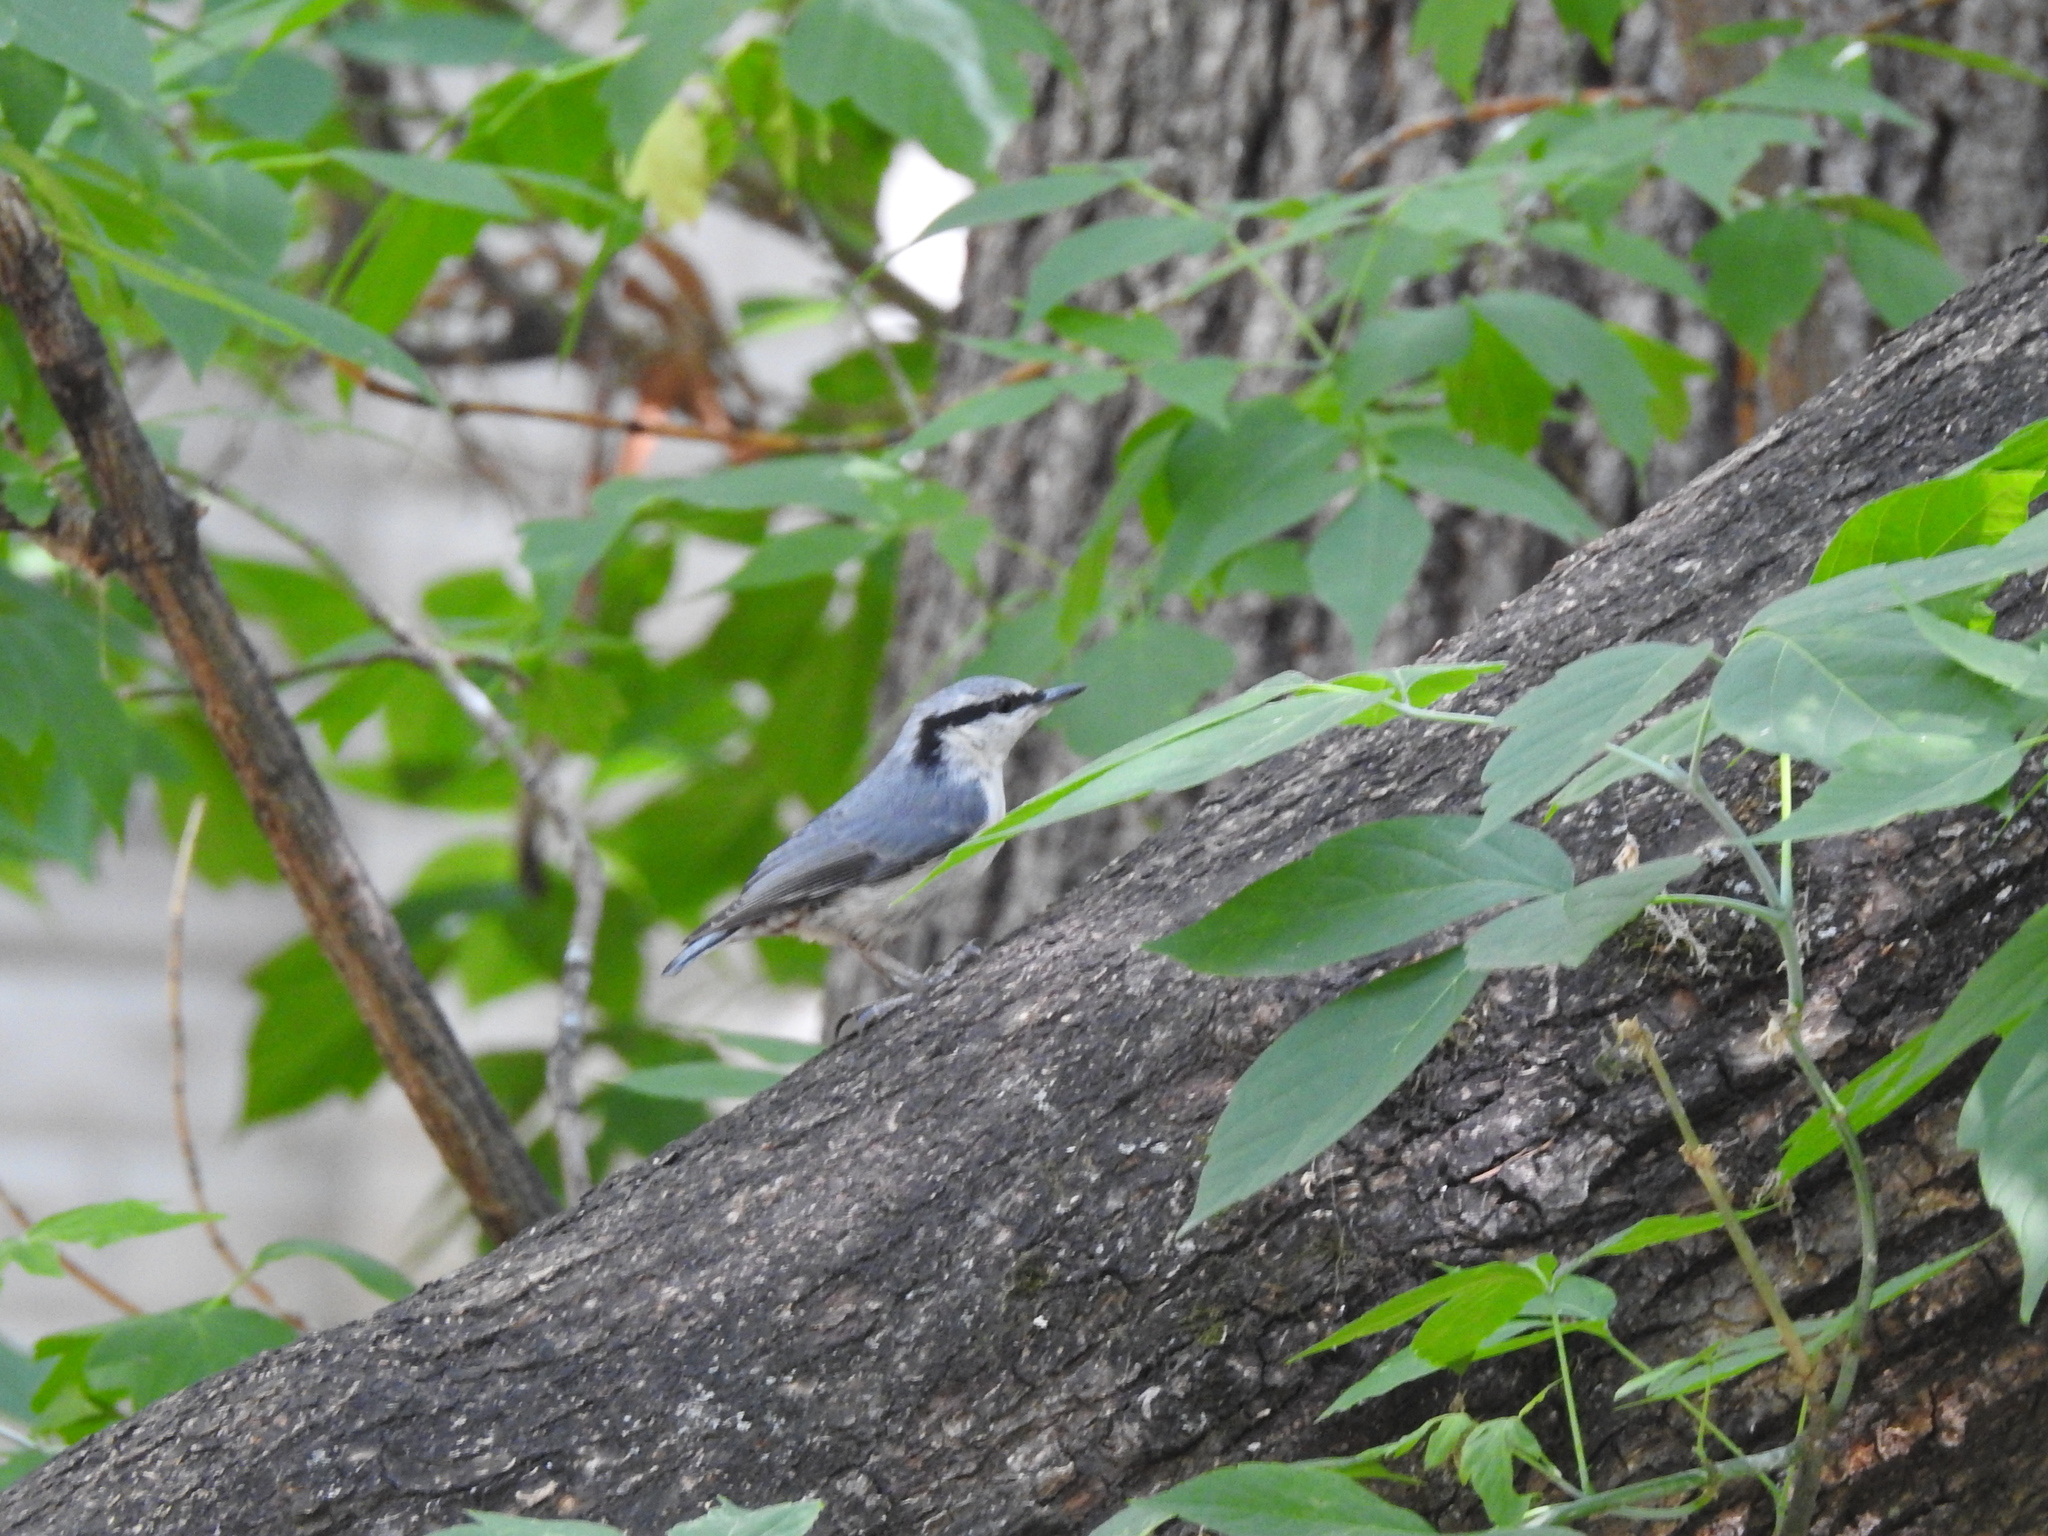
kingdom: Animalia
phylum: Chordata
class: Aves
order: Passeriformes
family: Sittidae
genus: Sitta
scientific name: Sitta europaea
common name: Eurasian nuthatch
